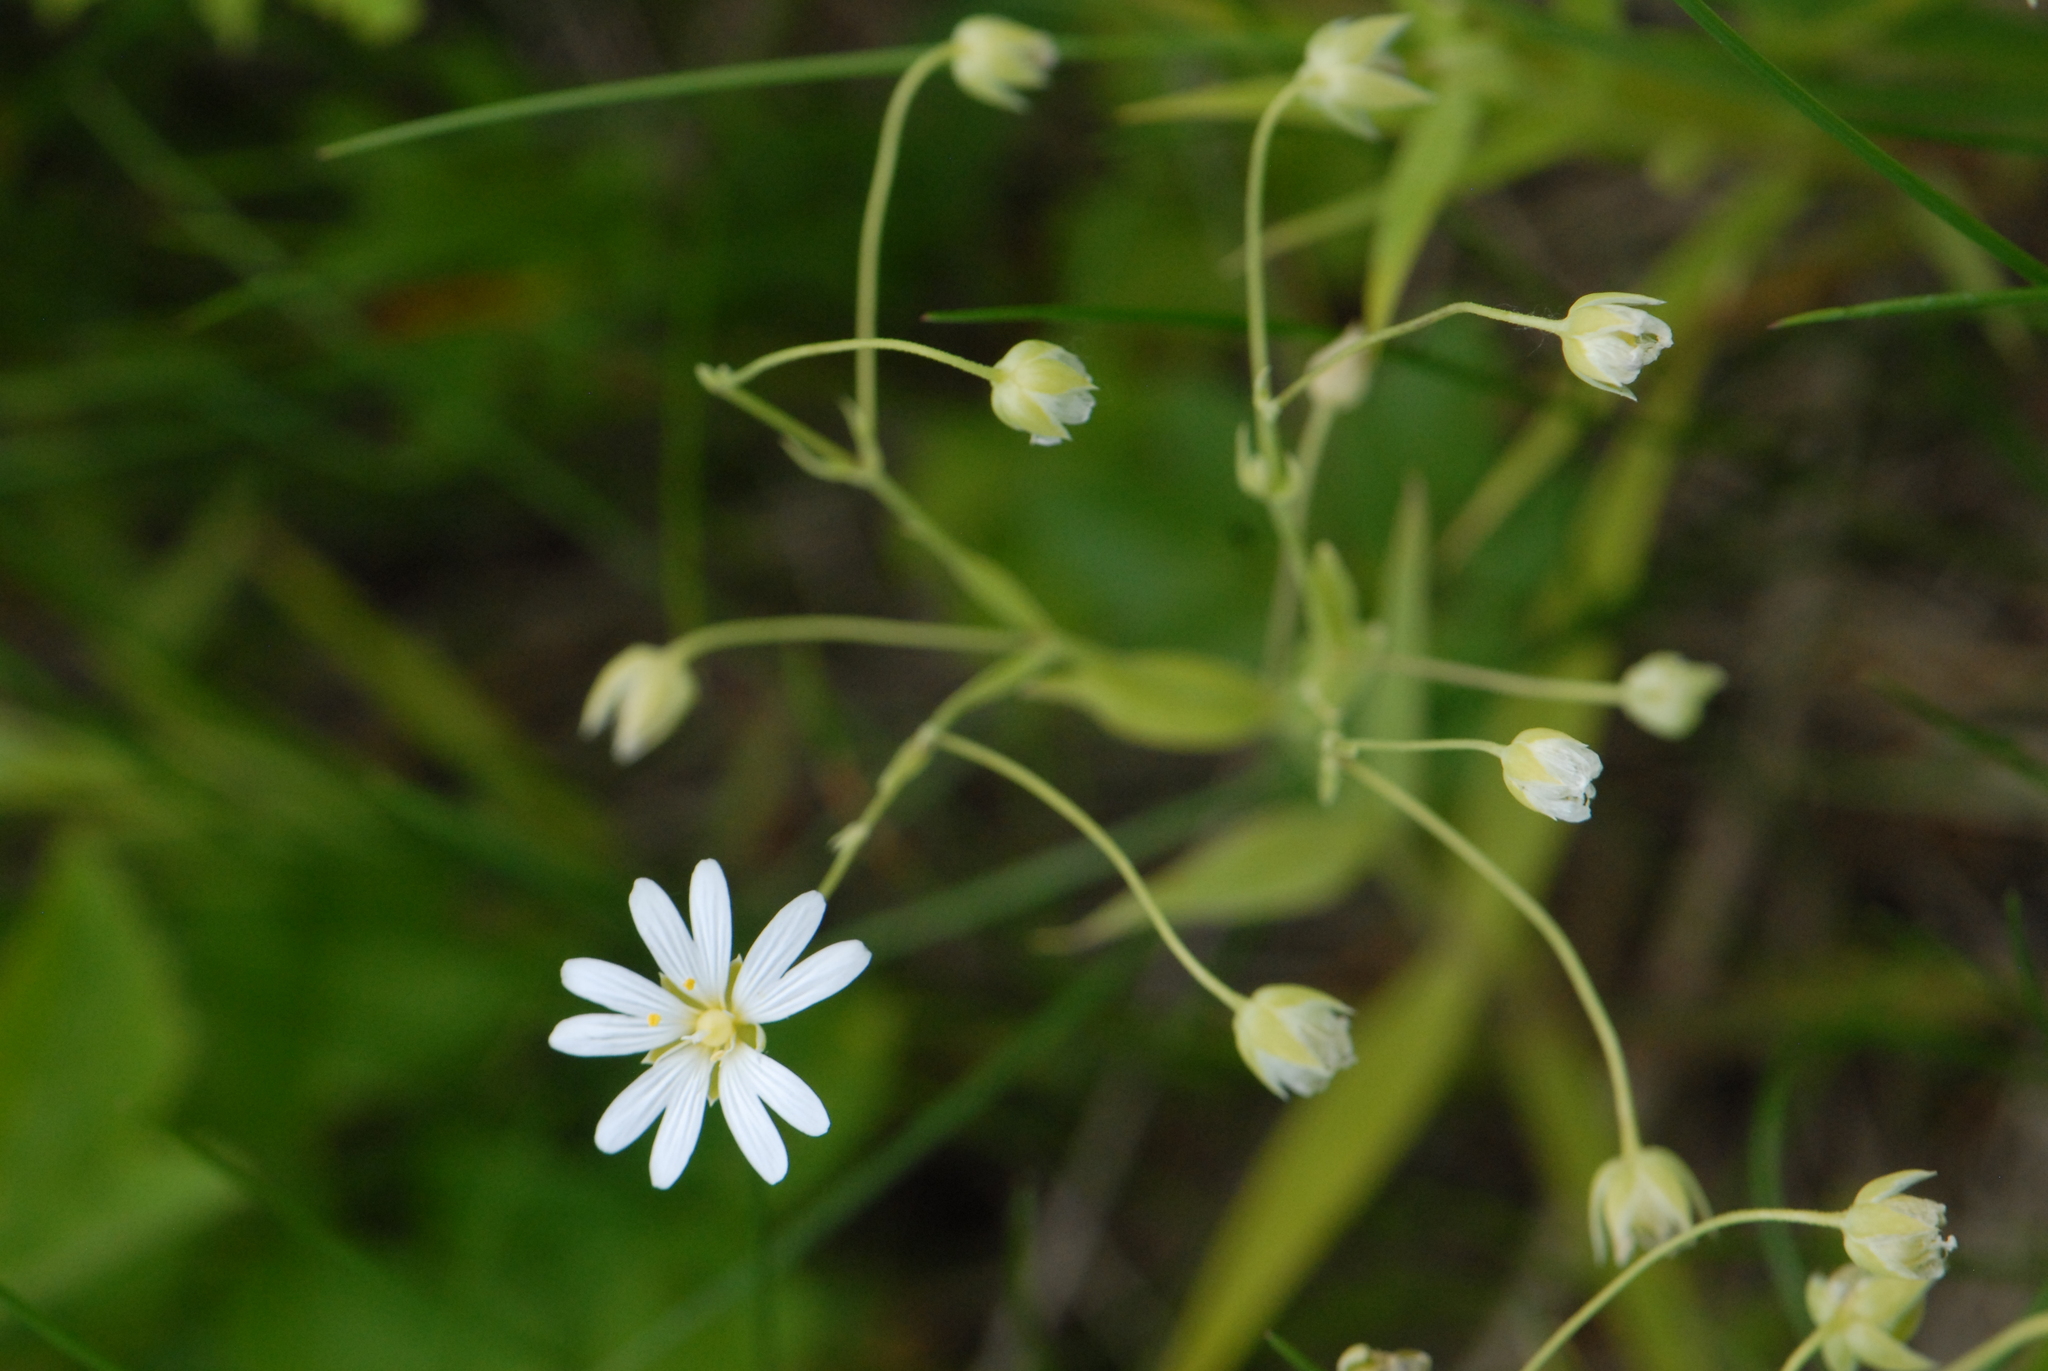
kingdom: Plantae
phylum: Tracheophyta
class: Magnoliopsida
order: Caryophyllales
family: Caryophyllaceae
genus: Rabelera
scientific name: Rabelera holostea
